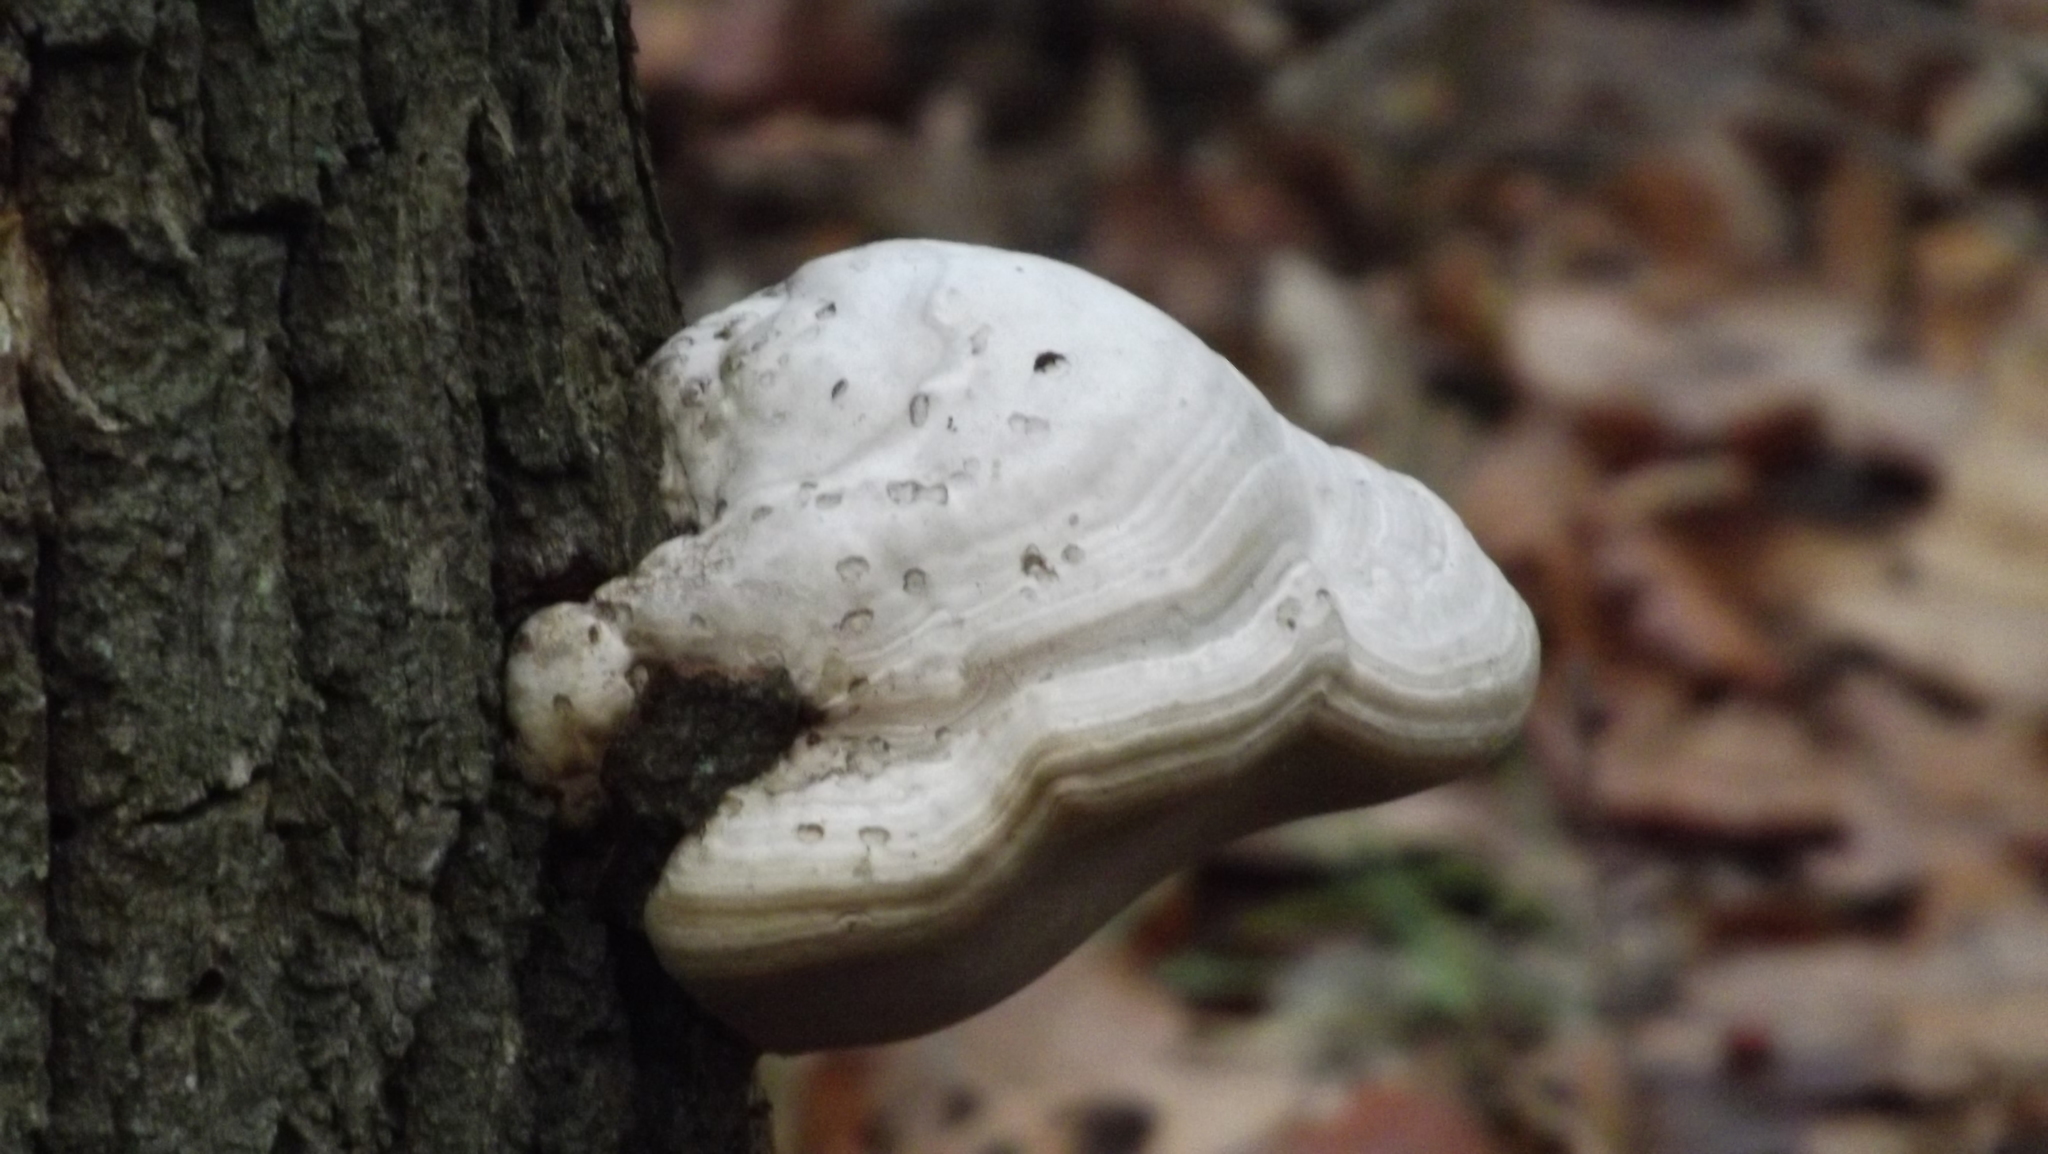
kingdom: Fungi
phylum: Basidiomycota
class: Agaricomycetes
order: Polyporales
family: Polyporaceae
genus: Fomes
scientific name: Fomes fomentarius
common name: Hoof fungus
